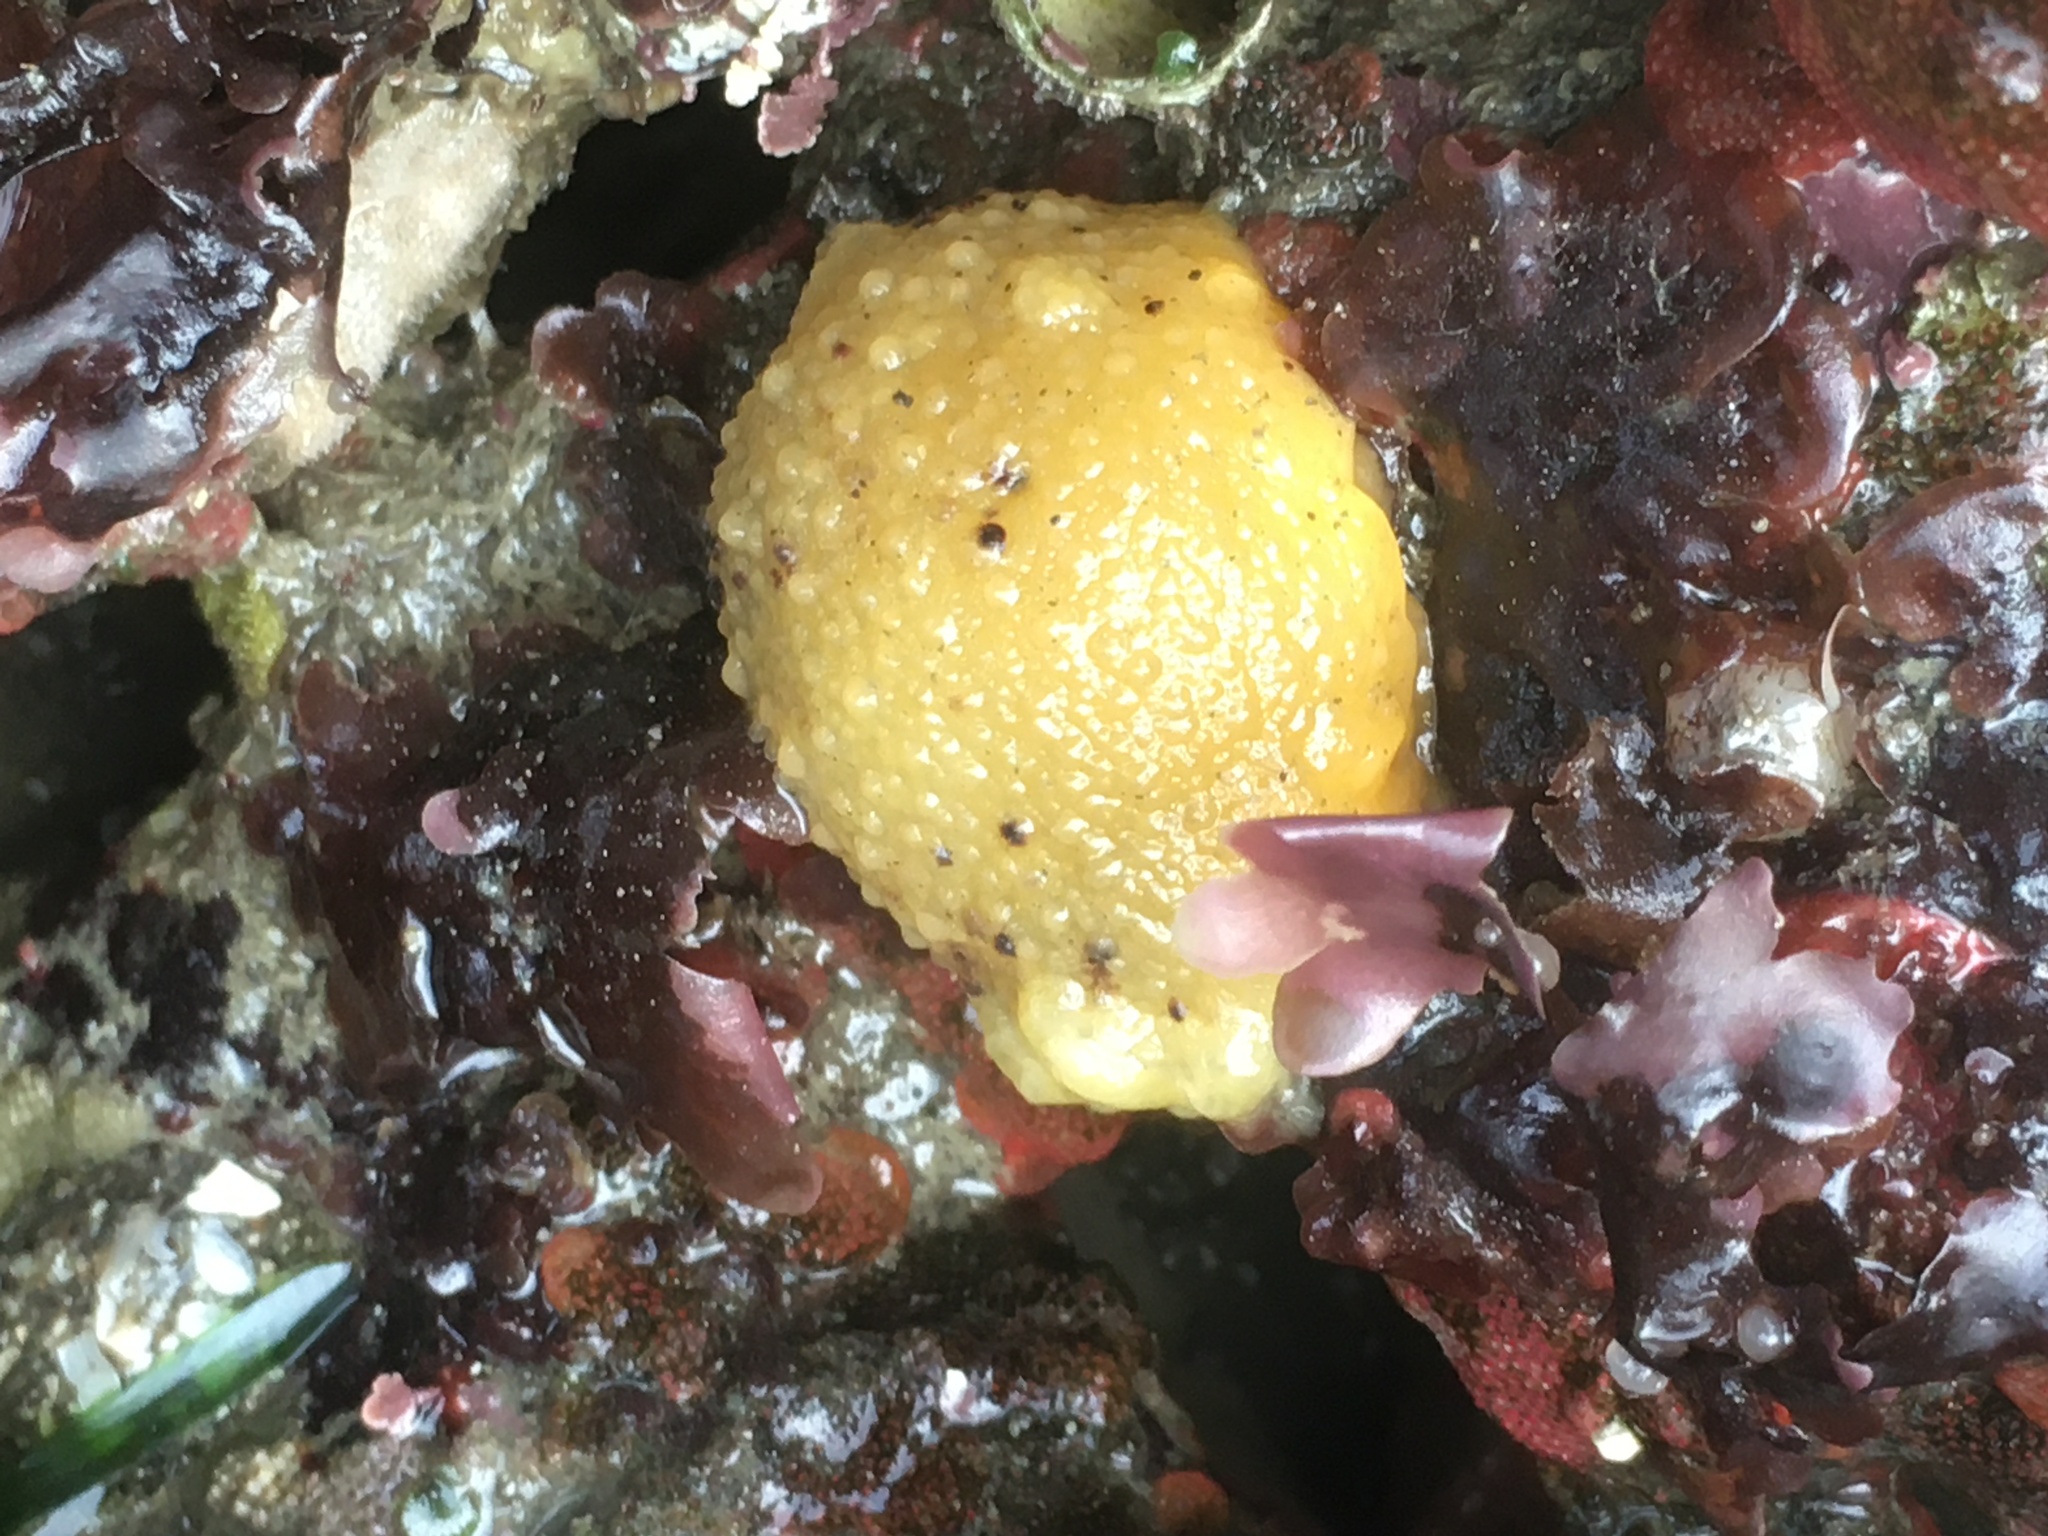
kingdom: Animalia
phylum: Mollusca
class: Gastropoda
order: Nudibranchia
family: Dorididae
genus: Doris
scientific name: Doris montereyensis
